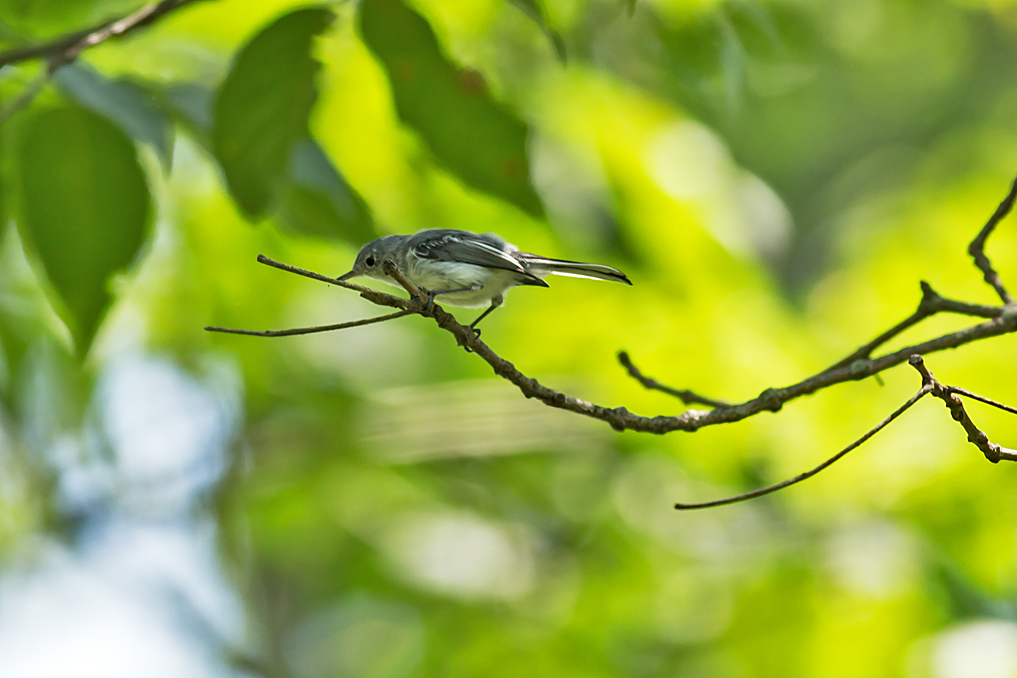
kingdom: Animalia
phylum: Chordata
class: Aves
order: Passeriformes
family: Polioptilidae
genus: Polioptila
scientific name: Polioptila caerulea
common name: Blue-gray gnatcatcher
